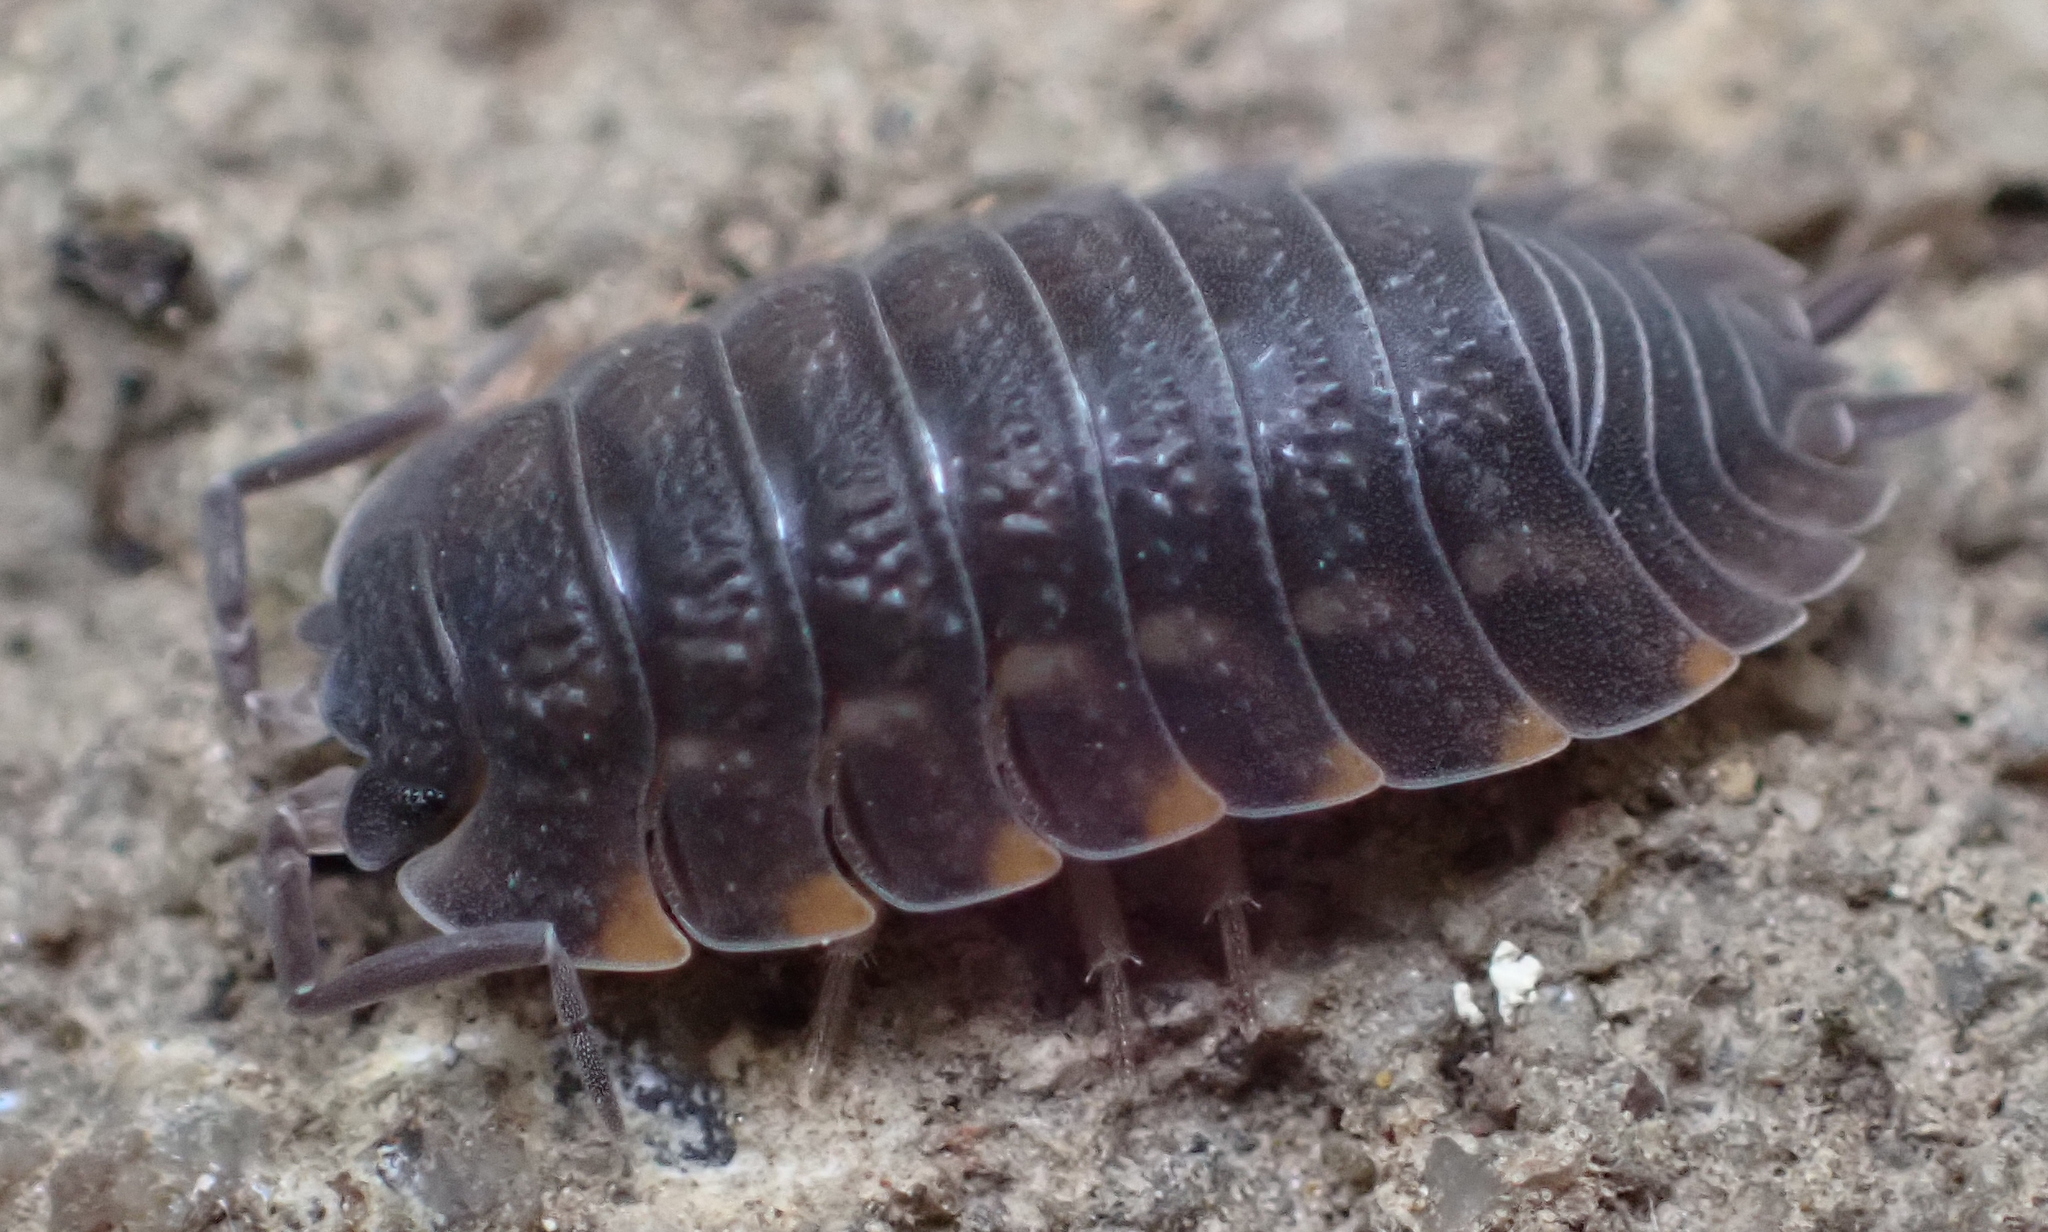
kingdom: Animalia
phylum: Arthropoda
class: Malacostraca
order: Isopoda
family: Trachelipodidae
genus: Trachelipus
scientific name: Trachelipus ratzeburgii
